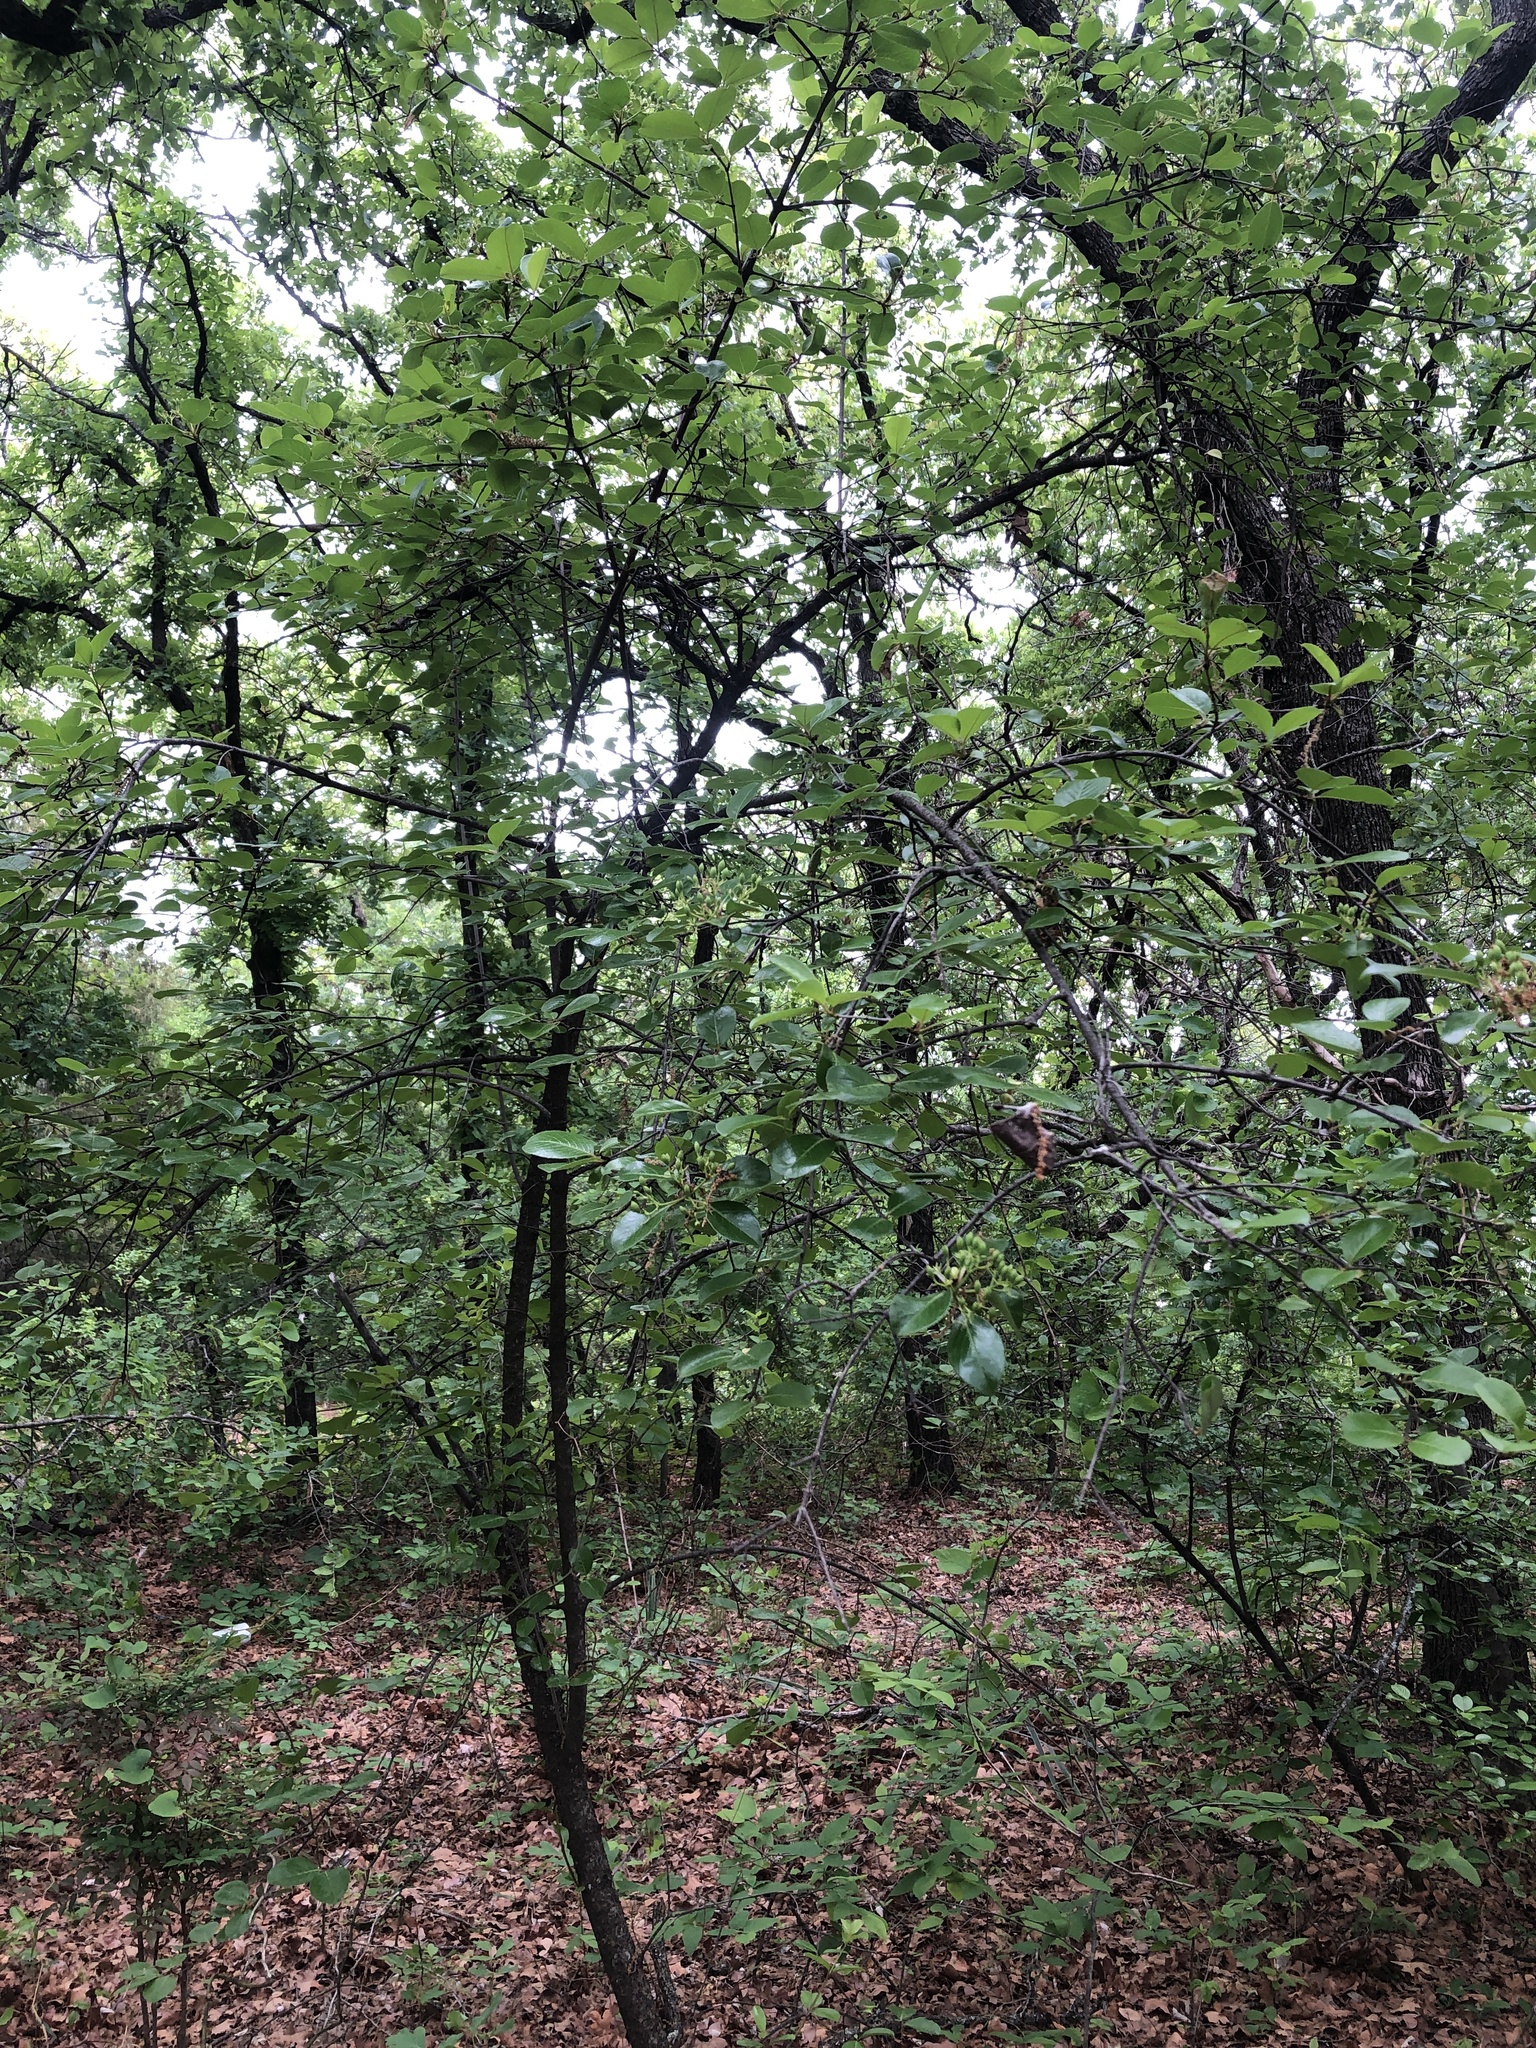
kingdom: Plantae
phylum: Tracheophyta
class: Magnoliopsida
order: Dipsacales
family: Viburnaceae
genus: Viburnum
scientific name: Viburnum rufidulum
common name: Blue haw
